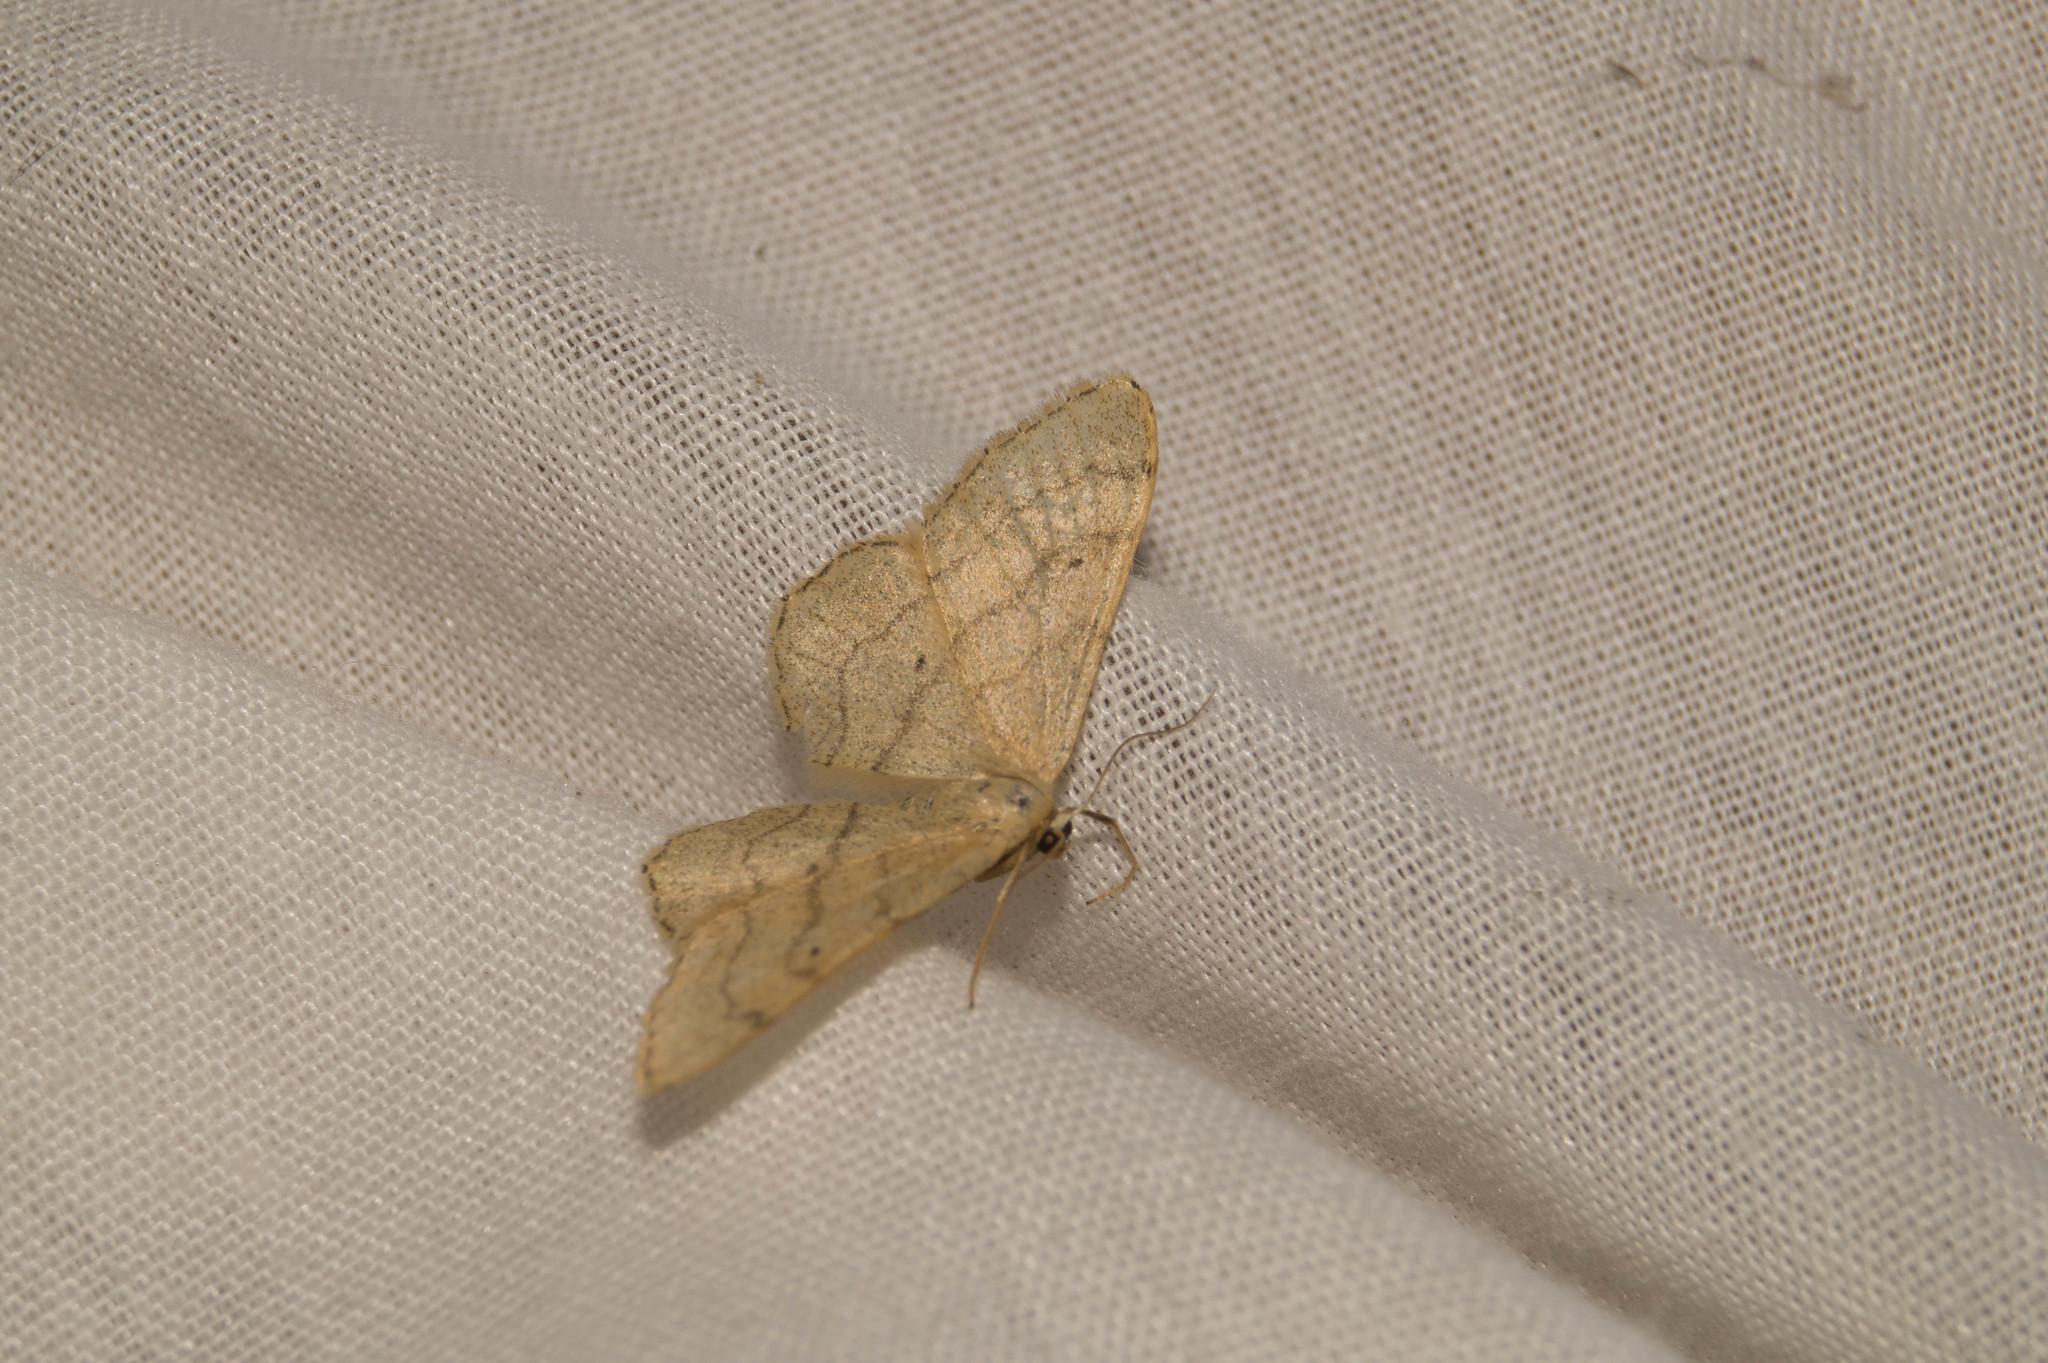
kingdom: Animalia
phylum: Arthropoda
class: Insecta
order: Lepidoptera
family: Geometridae
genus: Idaea
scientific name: Idaea aversata
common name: Riband wave
